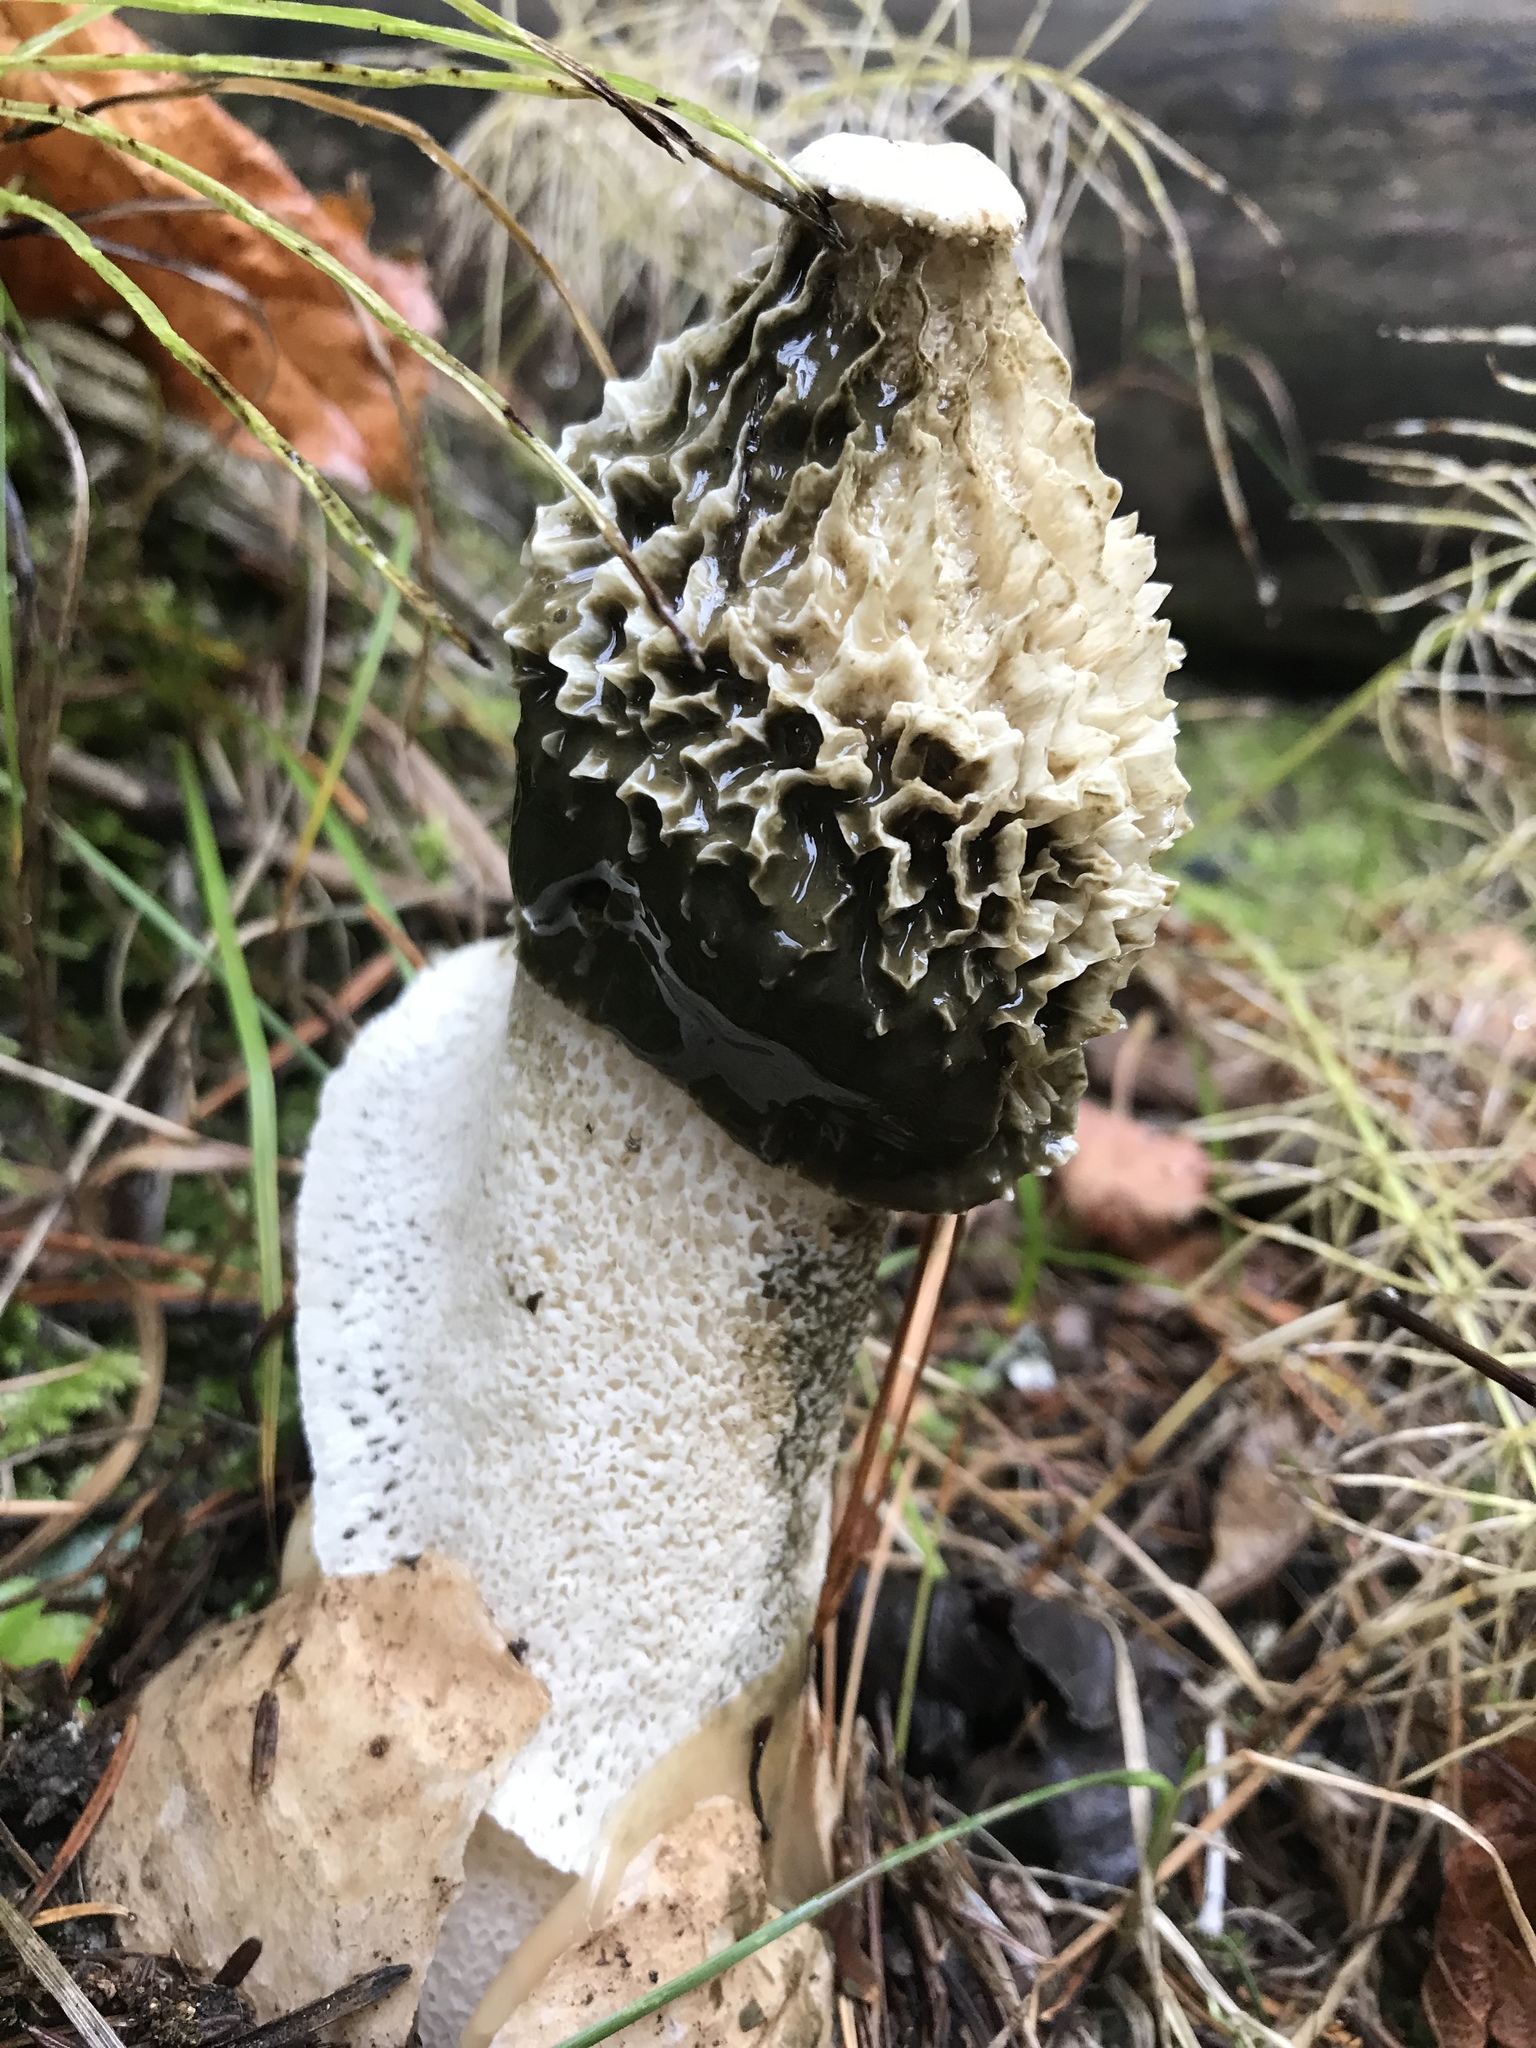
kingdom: Fungi
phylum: Basidiomycota
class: Agaricomycetes
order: Phallales
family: Phallaceae
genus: Phallus
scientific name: Phallus indusiatus
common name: Bridal veil stinkhorn
